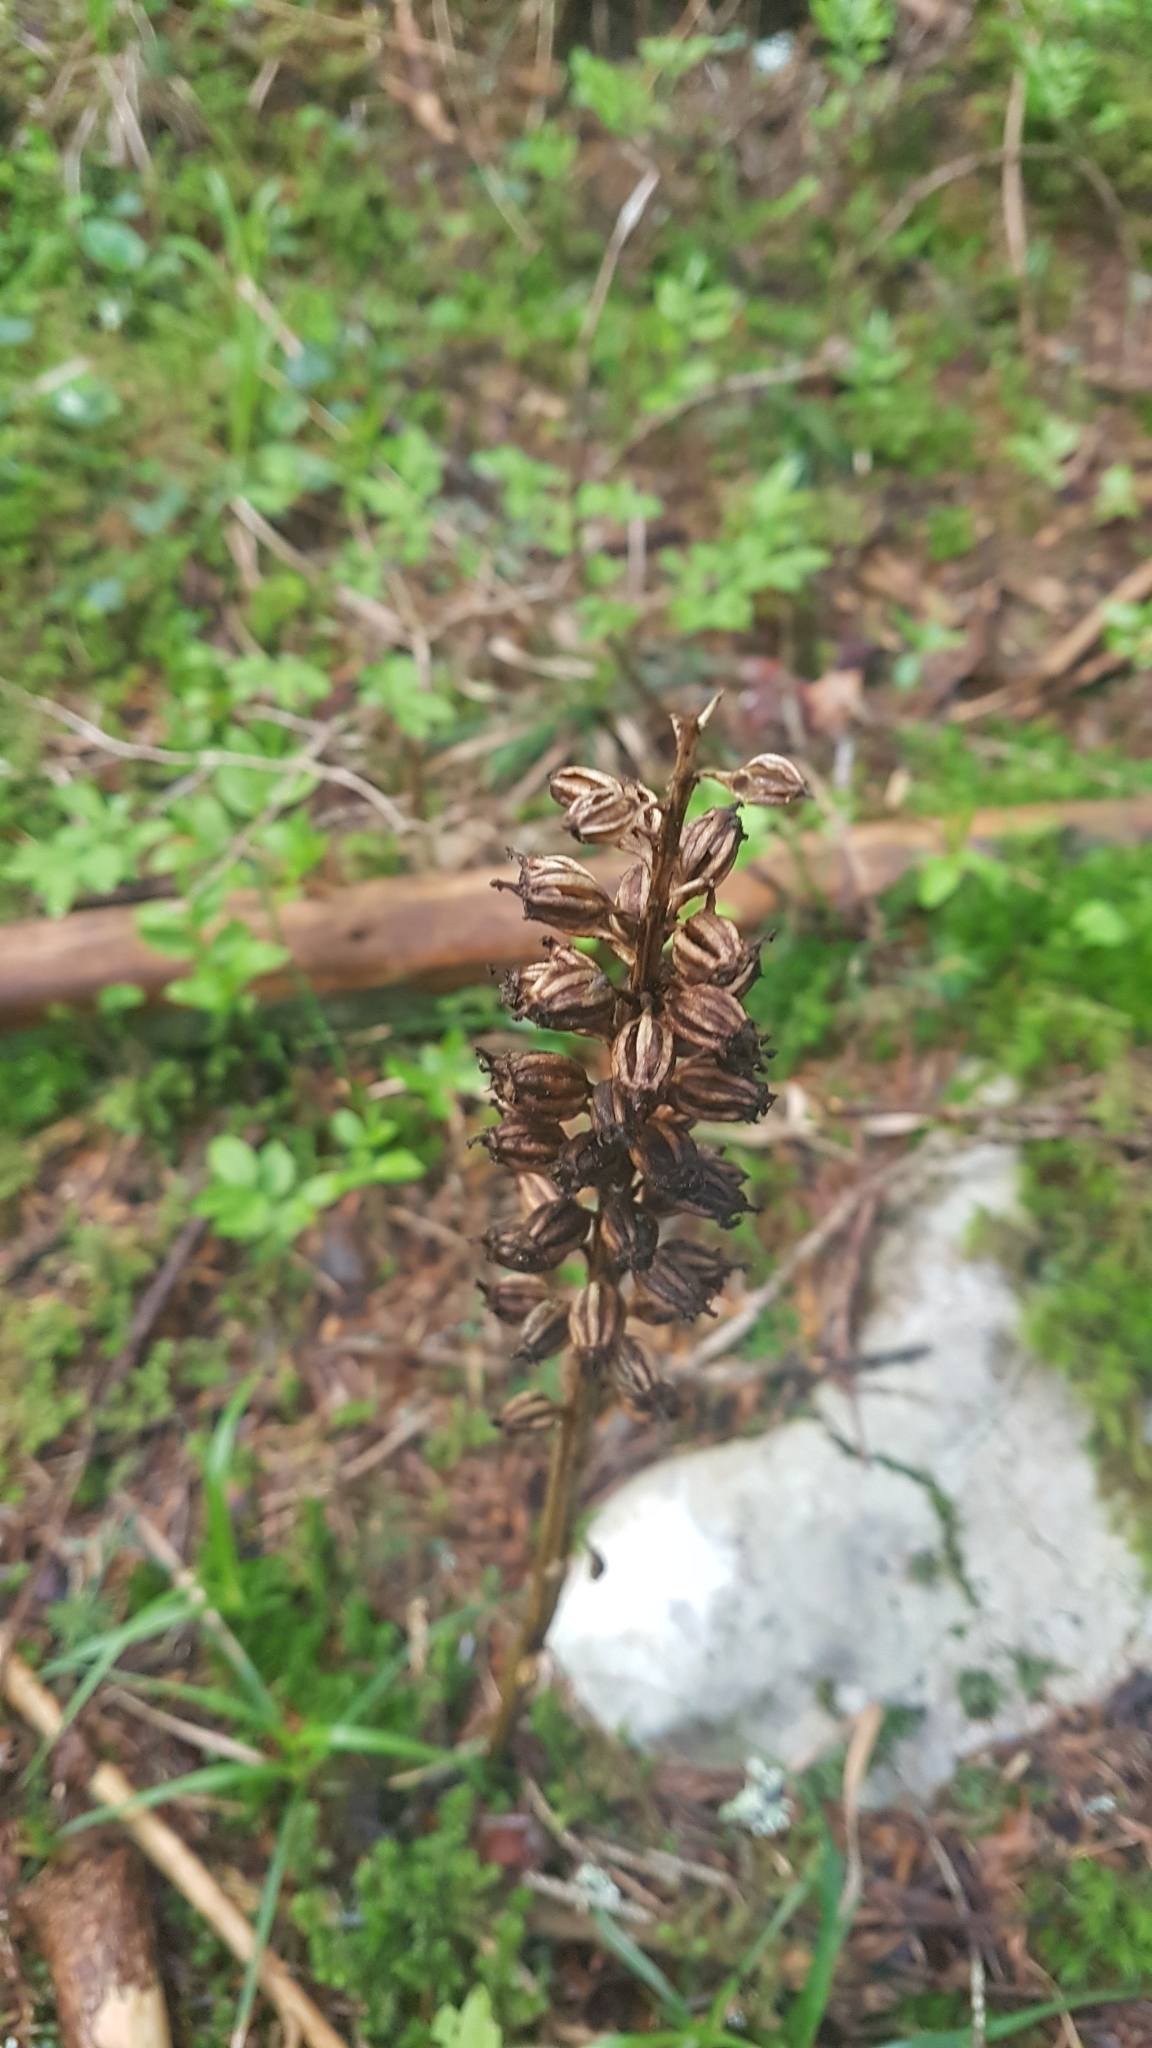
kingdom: Plantae
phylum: Tracheophyta
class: Liliopsida
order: Asparagales
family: Orchidaceae
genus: Neottia
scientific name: Neottia nidus-avis
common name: Bird's-nest orchid
